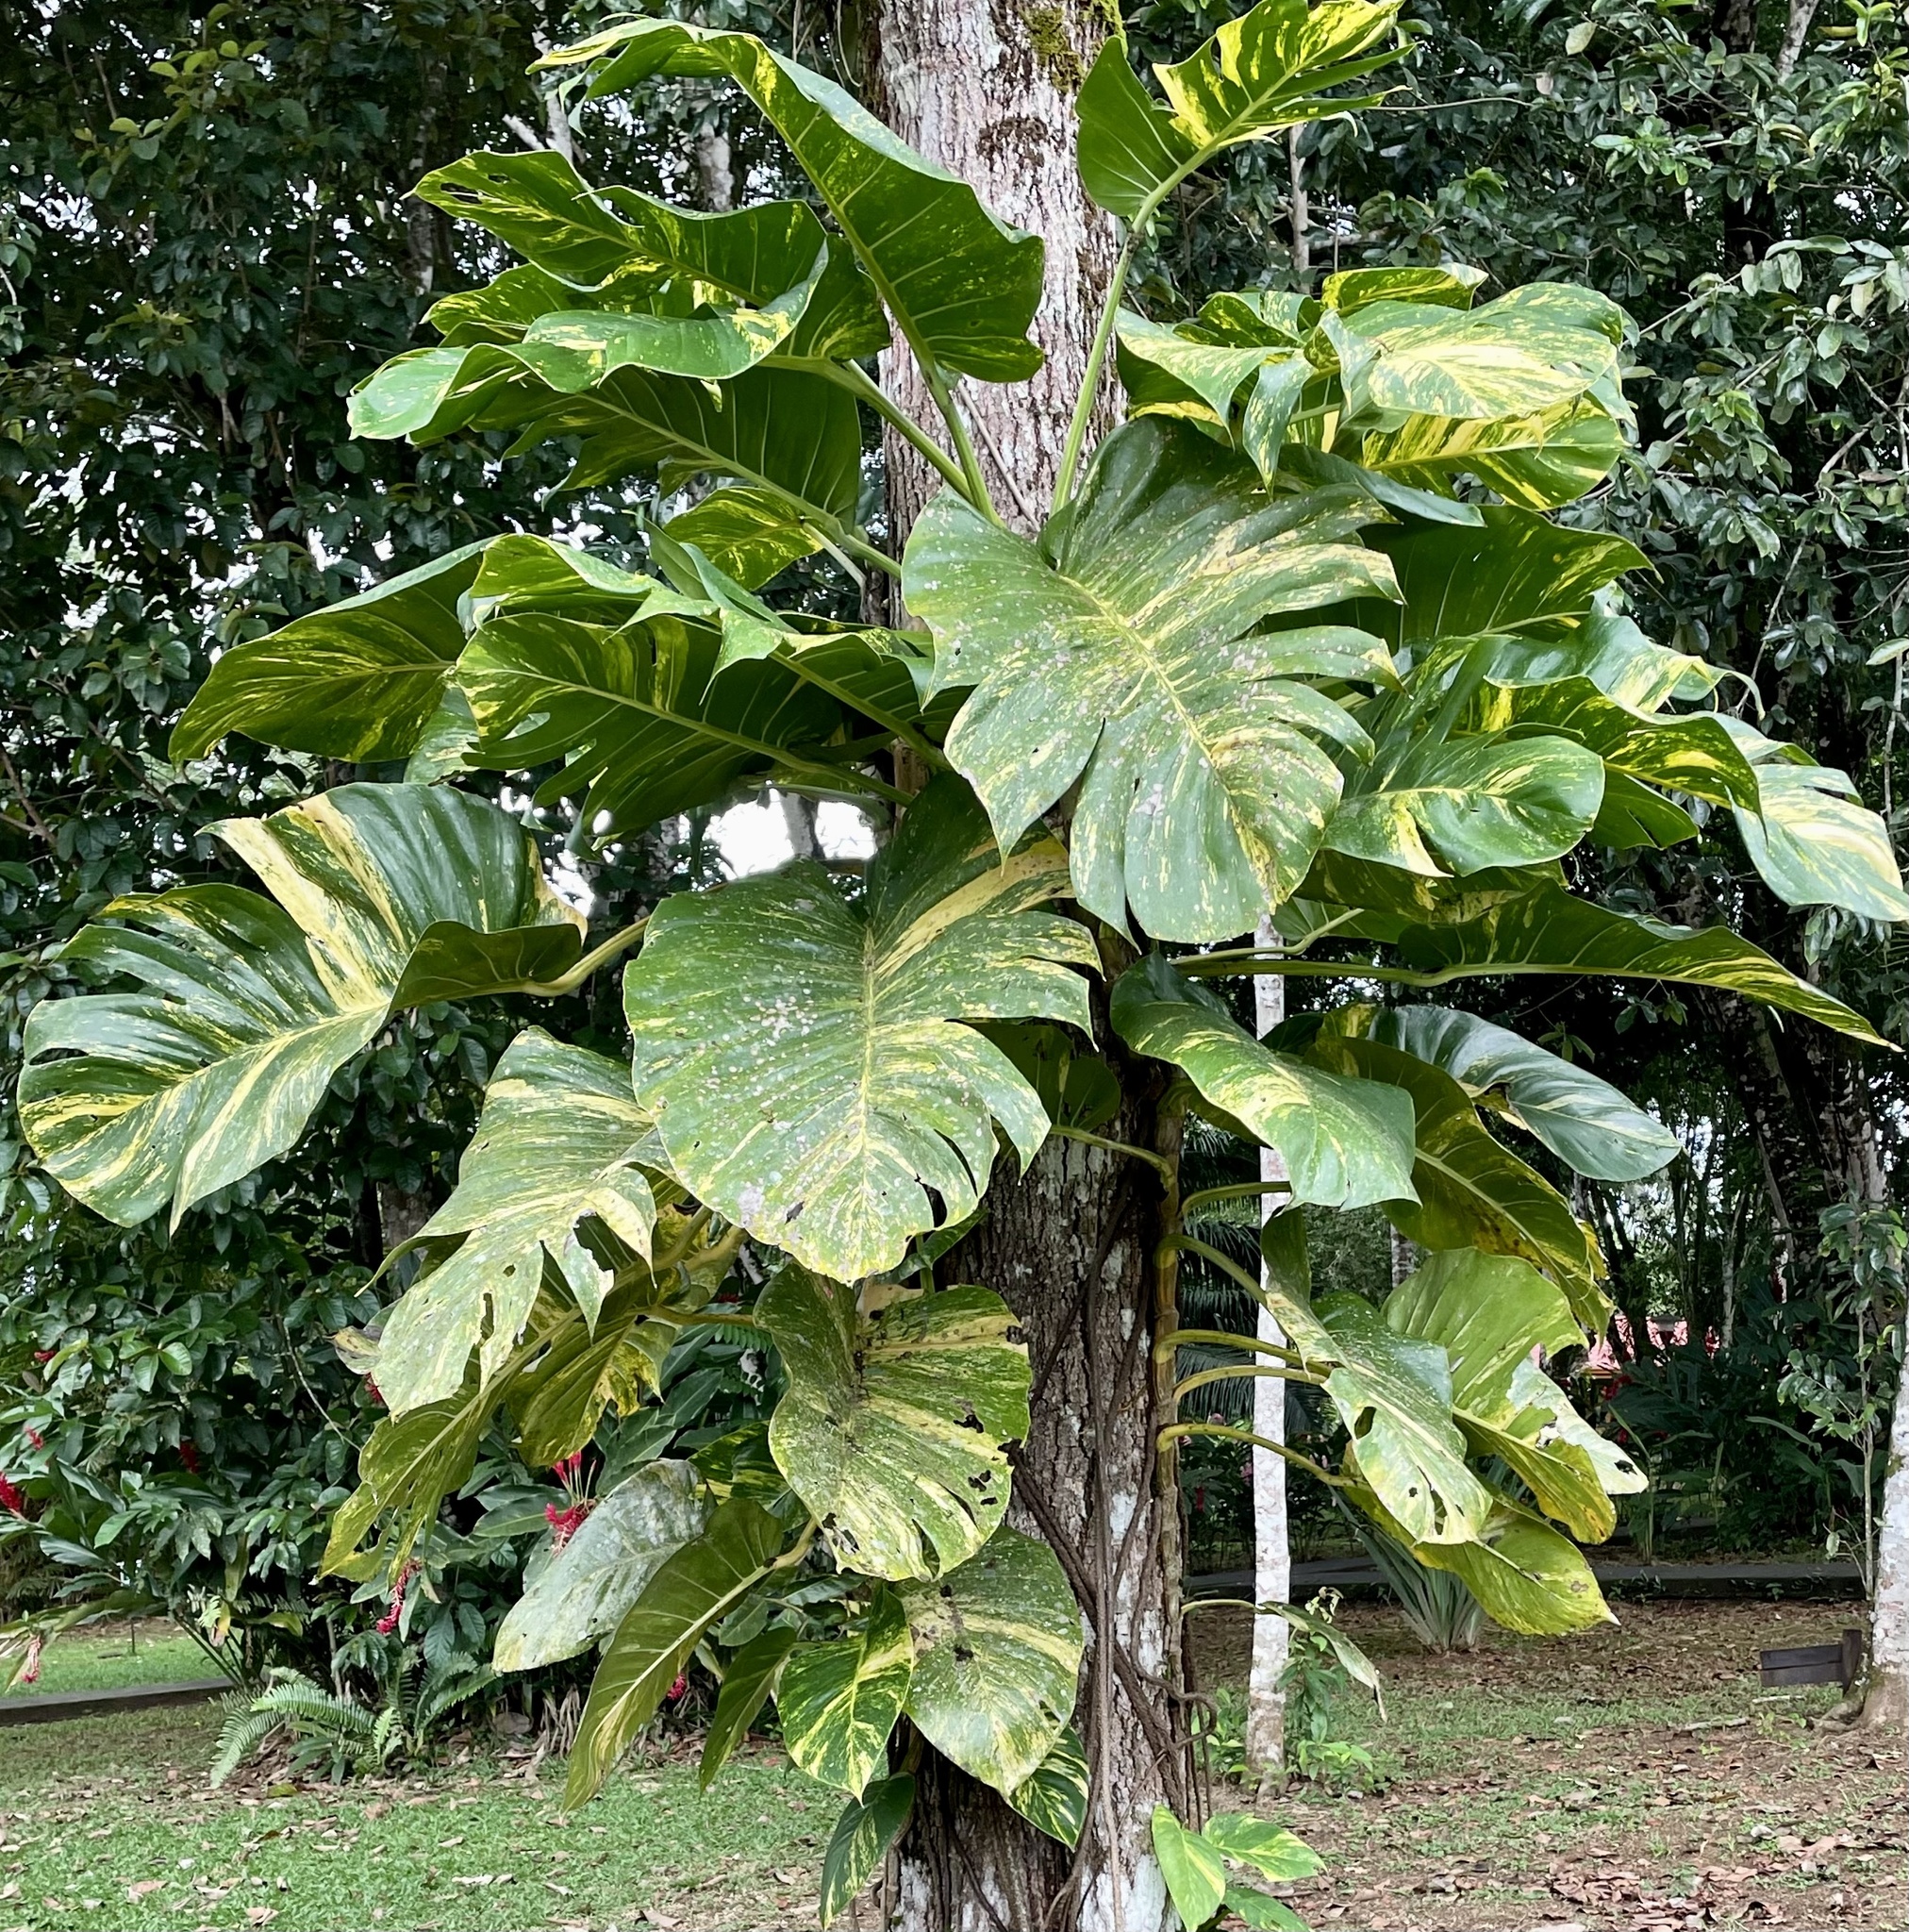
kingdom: Plantae
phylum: Tracheophyta
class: Liliopsida
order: Alismatales
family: Araceae
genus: Epipremnum
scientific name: Epipremnum aureum
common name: Golden hunter's-robe
